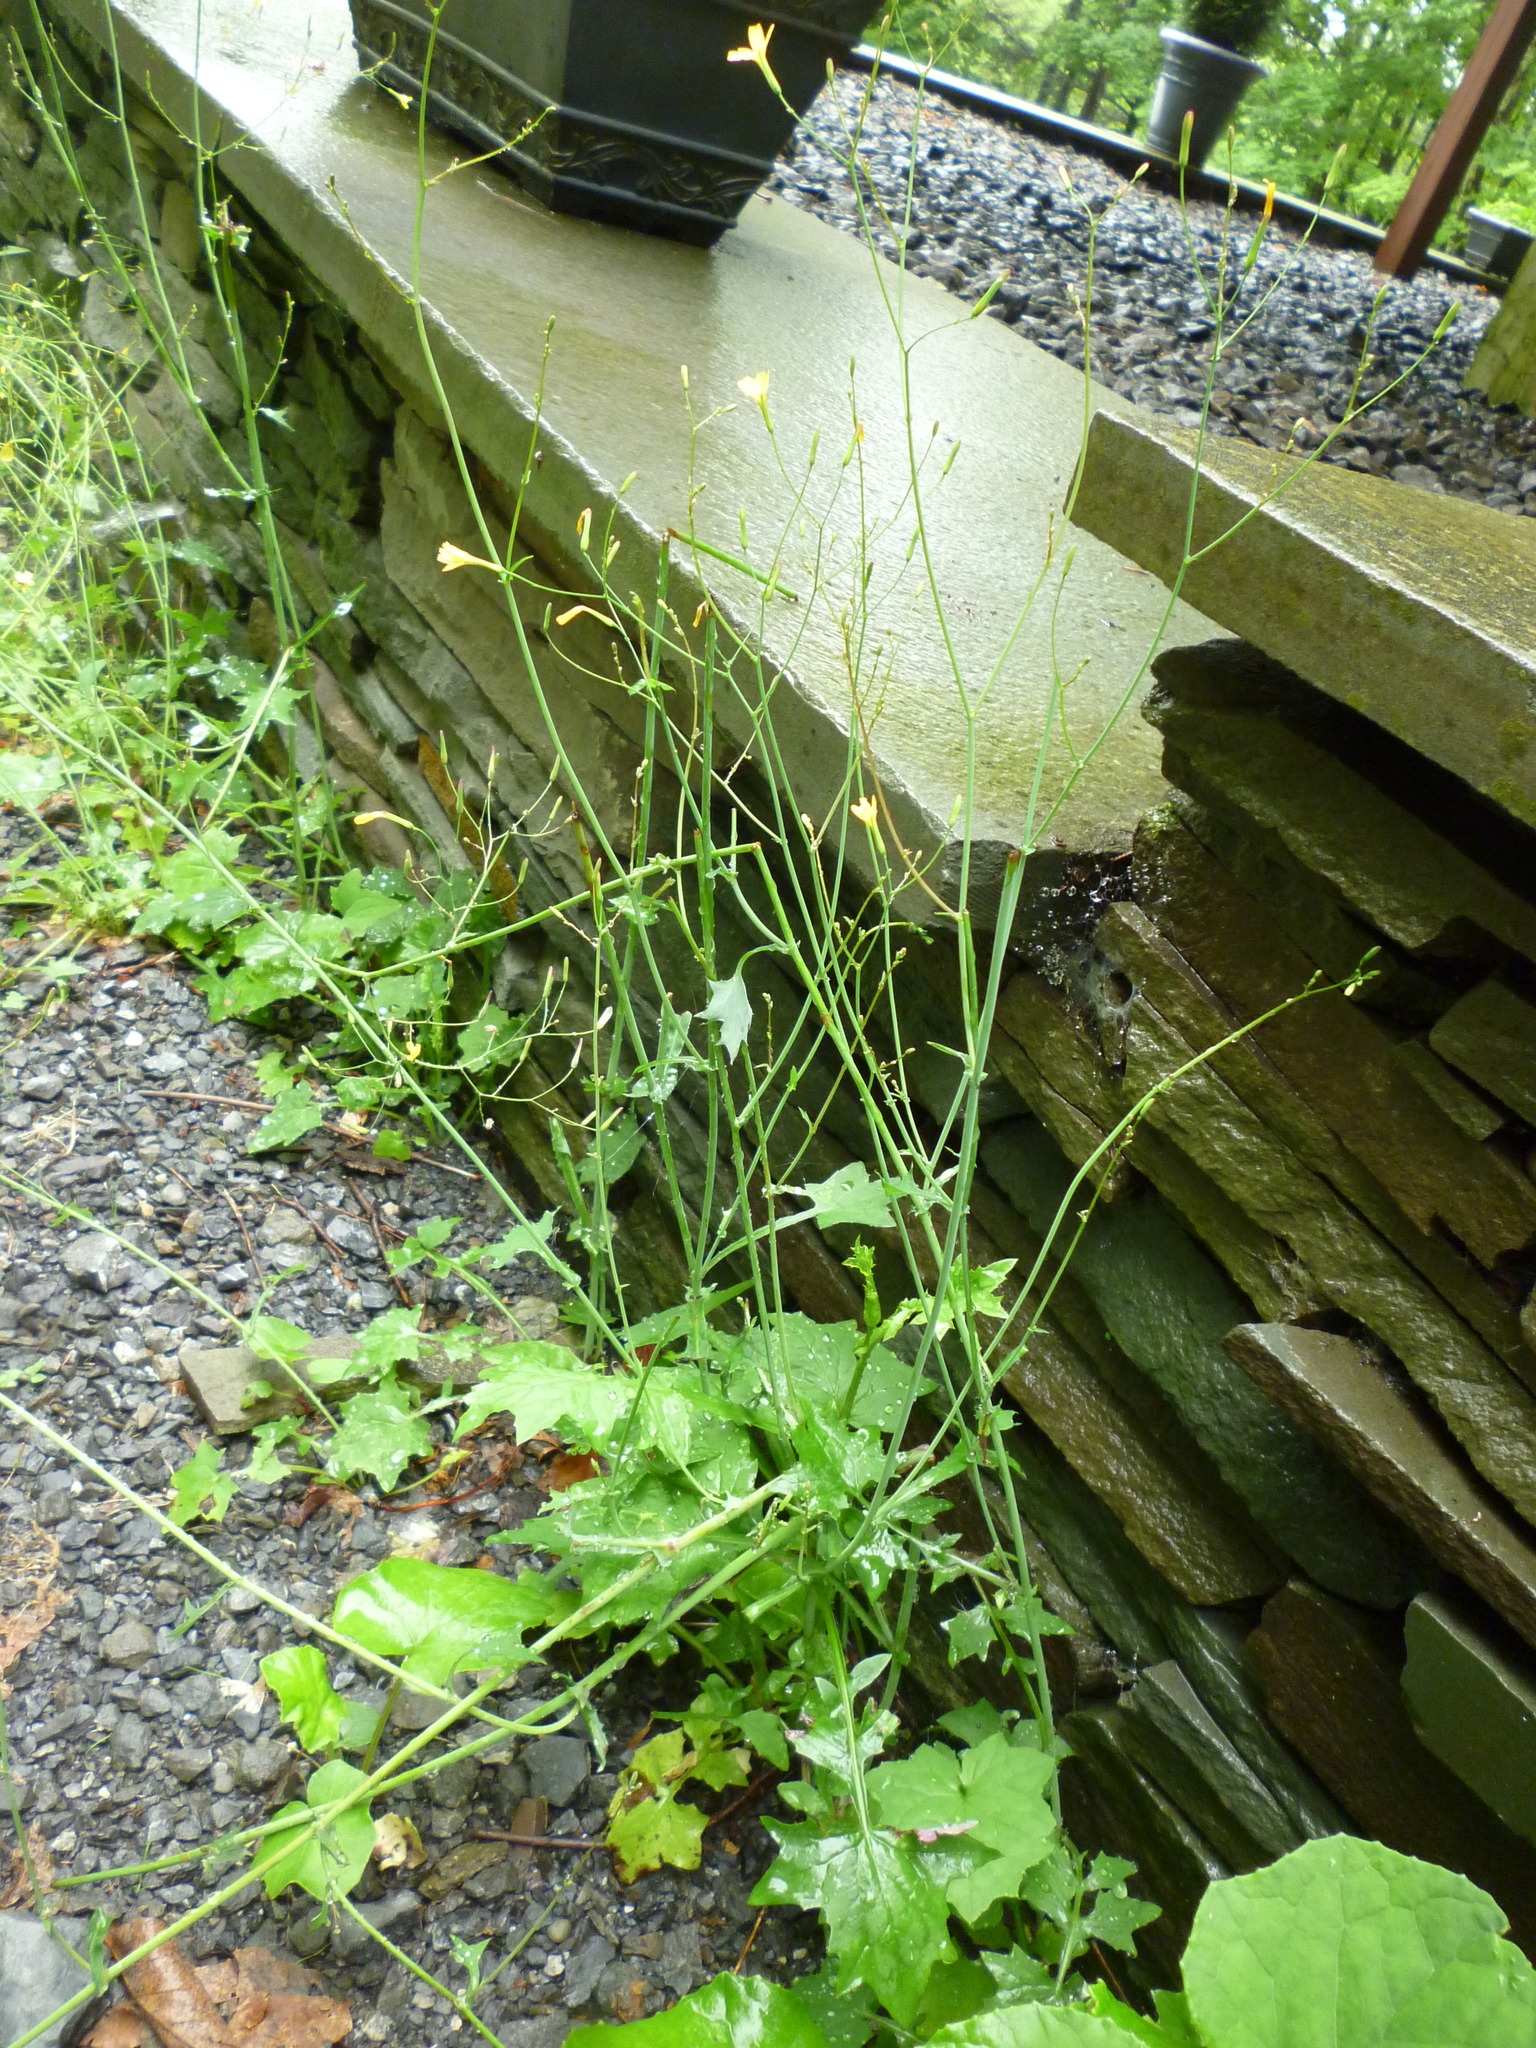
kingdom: Plantae
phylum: Tracheophyta
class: Magnoliopsida
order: Asterales
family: Asteraceae
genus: Mycelis
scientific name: Mycelis muralis
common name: Wall lettuce
